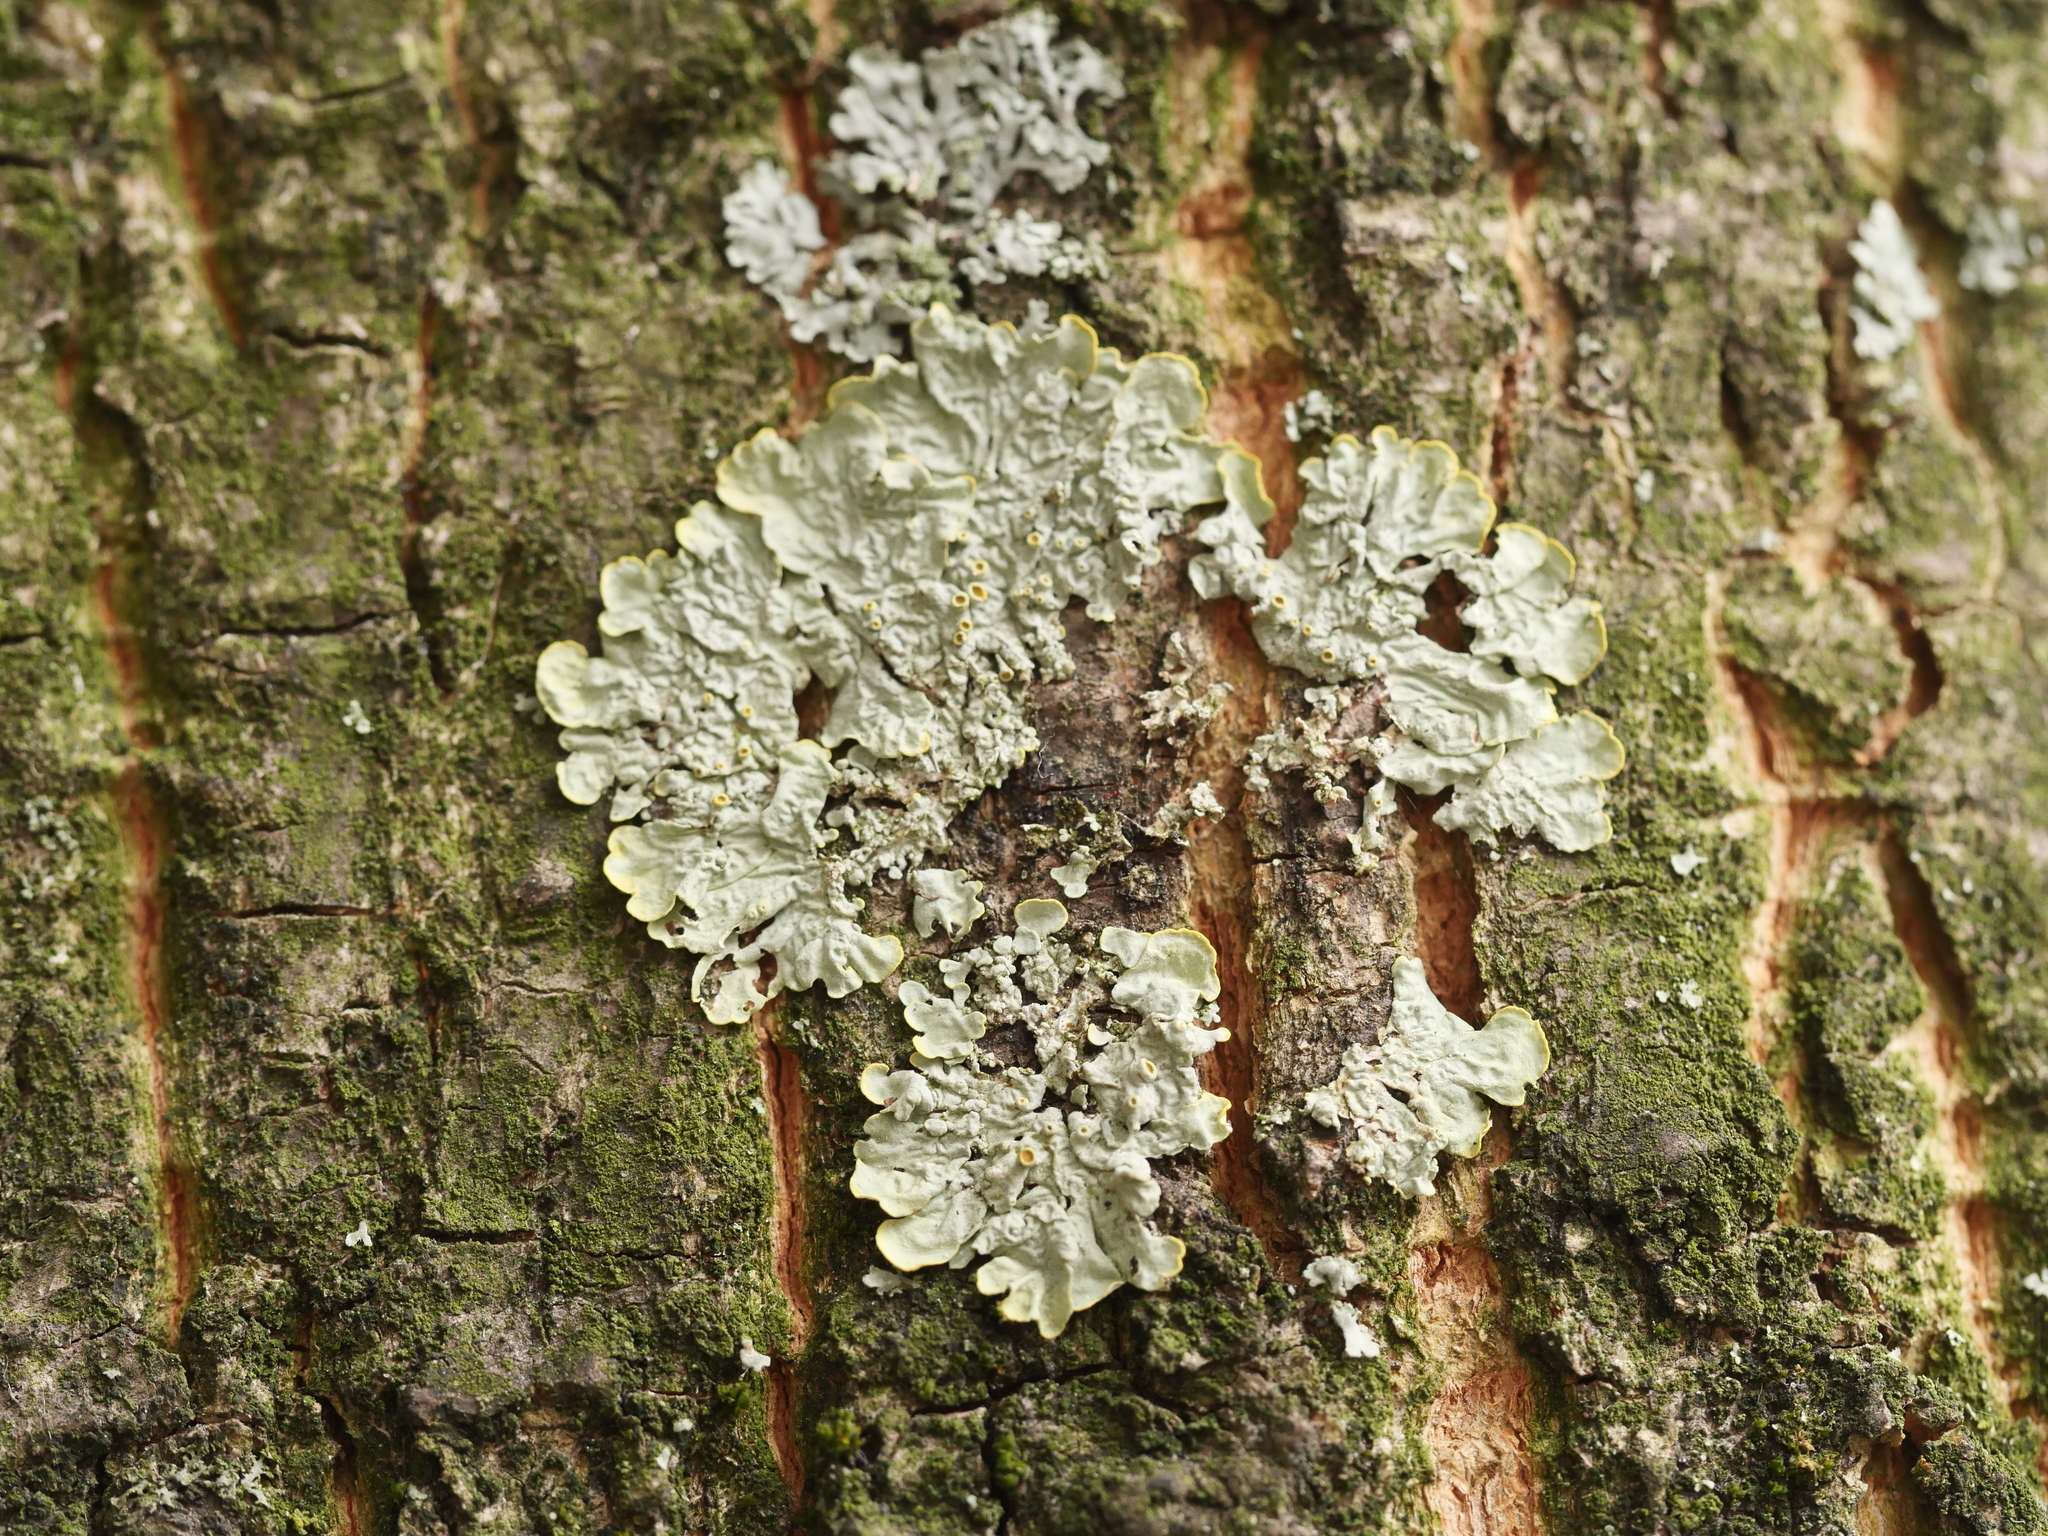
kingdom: Fungi
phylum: Ascomycota
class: Lecanoromycetes
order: Teloschistales
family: Teloschistaceae
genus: Xanthoria
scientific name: Xanthoria parietina
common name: Common orange lichen
